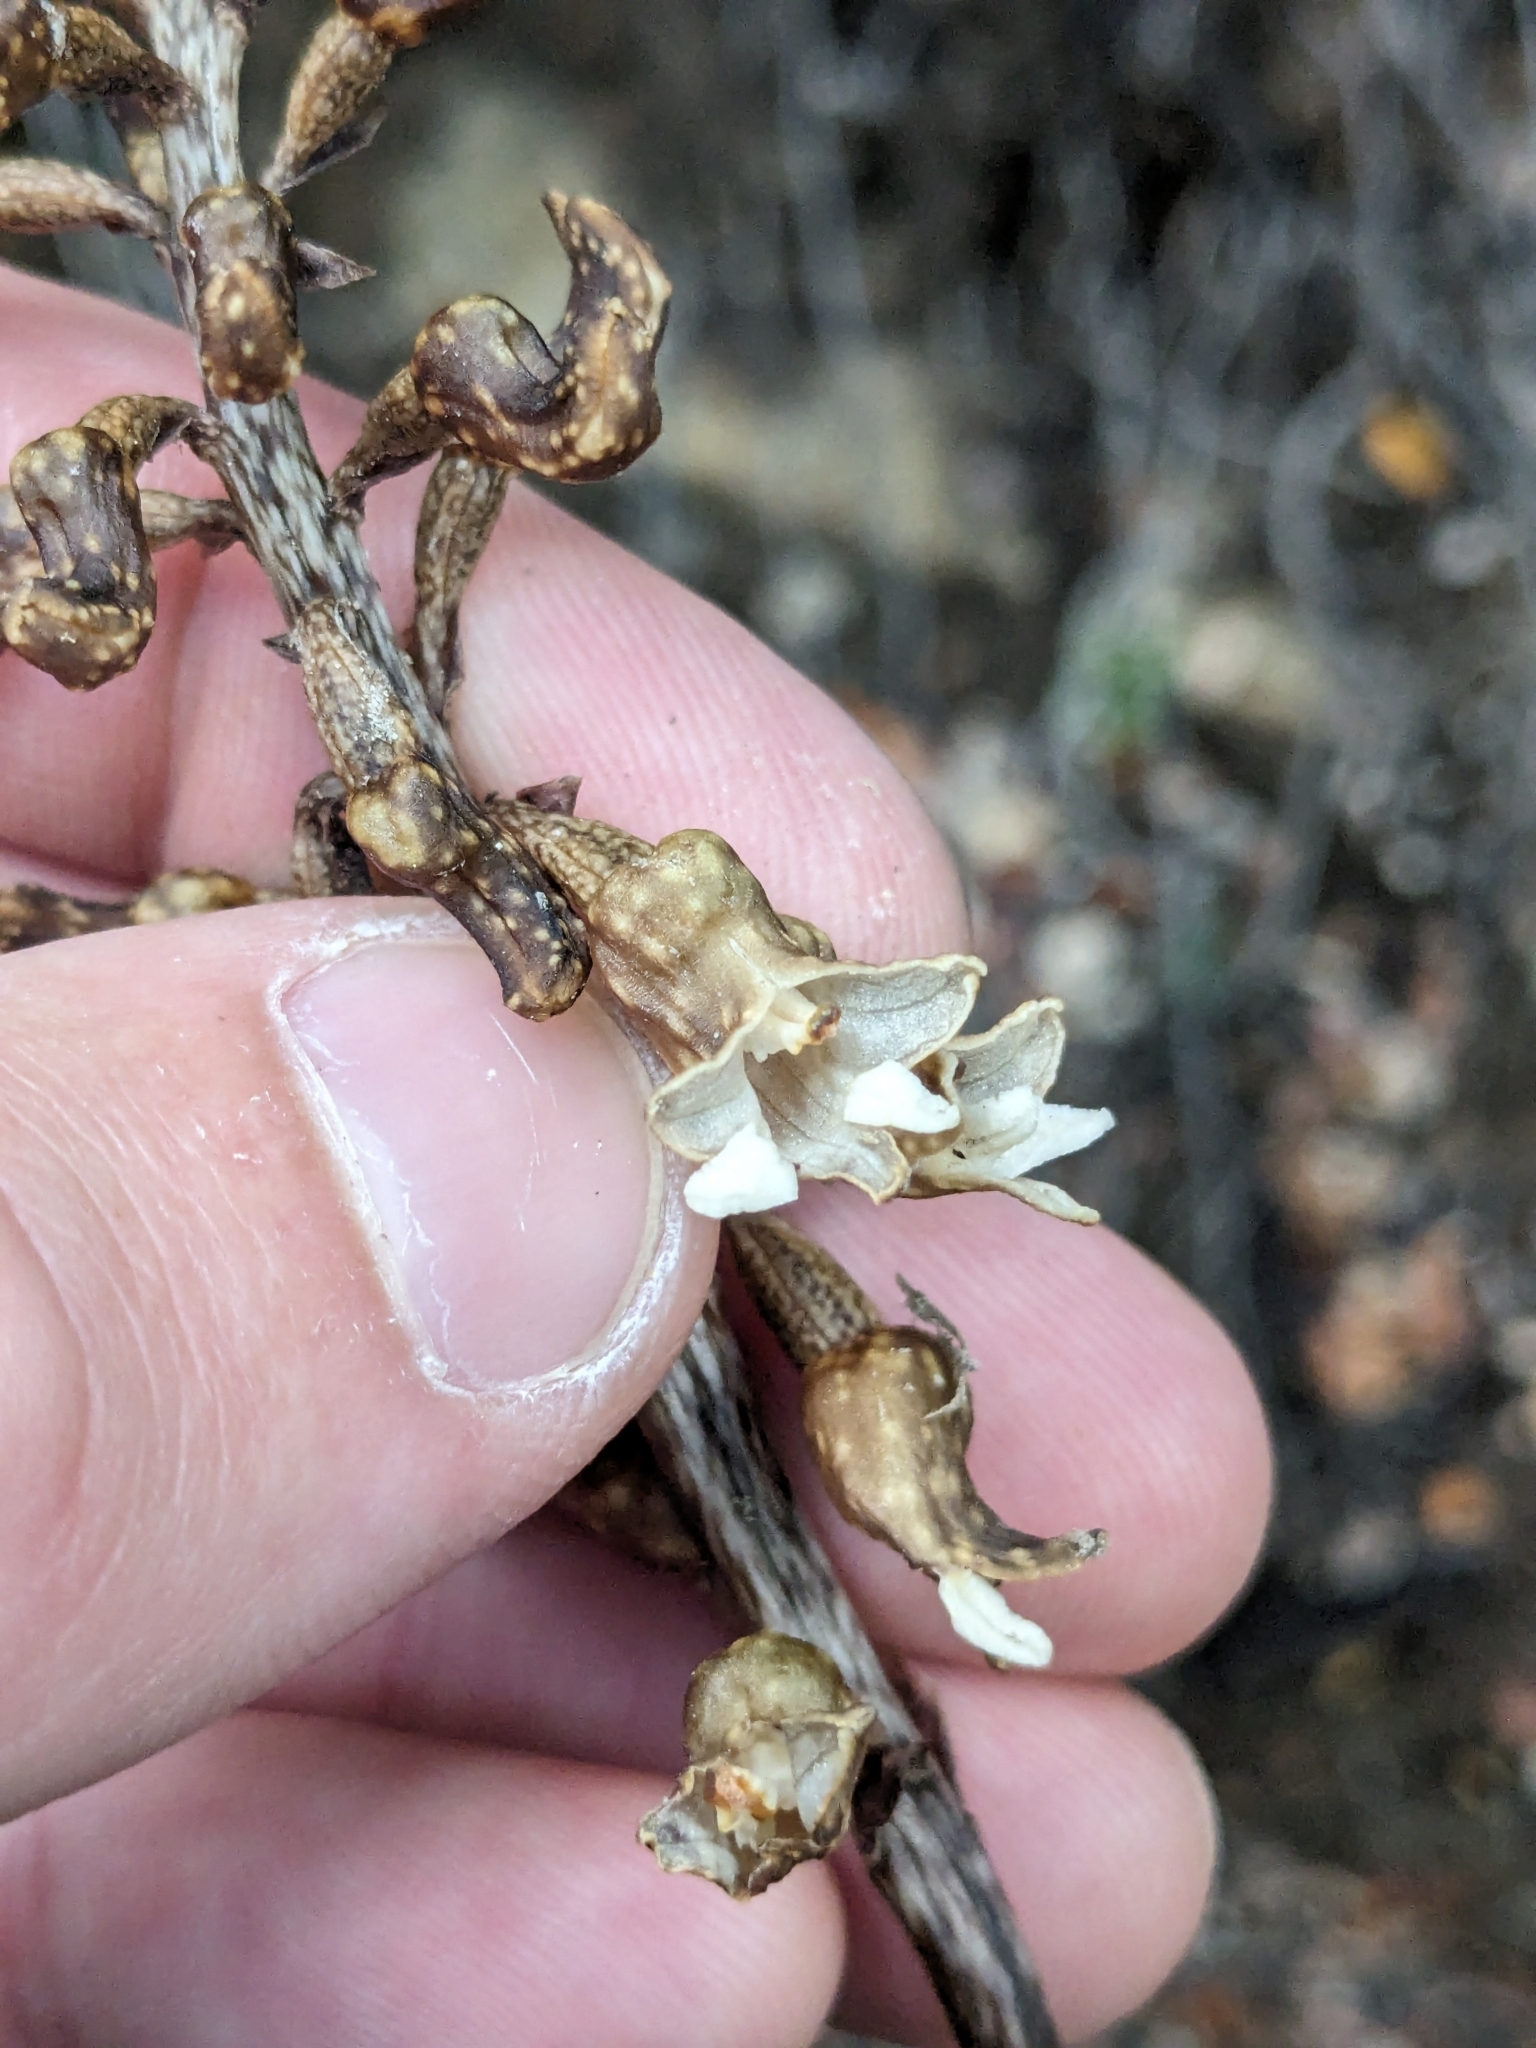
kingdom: Plantae
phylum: Tracheophyta
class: Liliopsida
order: Asparagales
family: Orchidaceae
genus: Gastrodia
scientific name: Gastrodia cunninghamii
